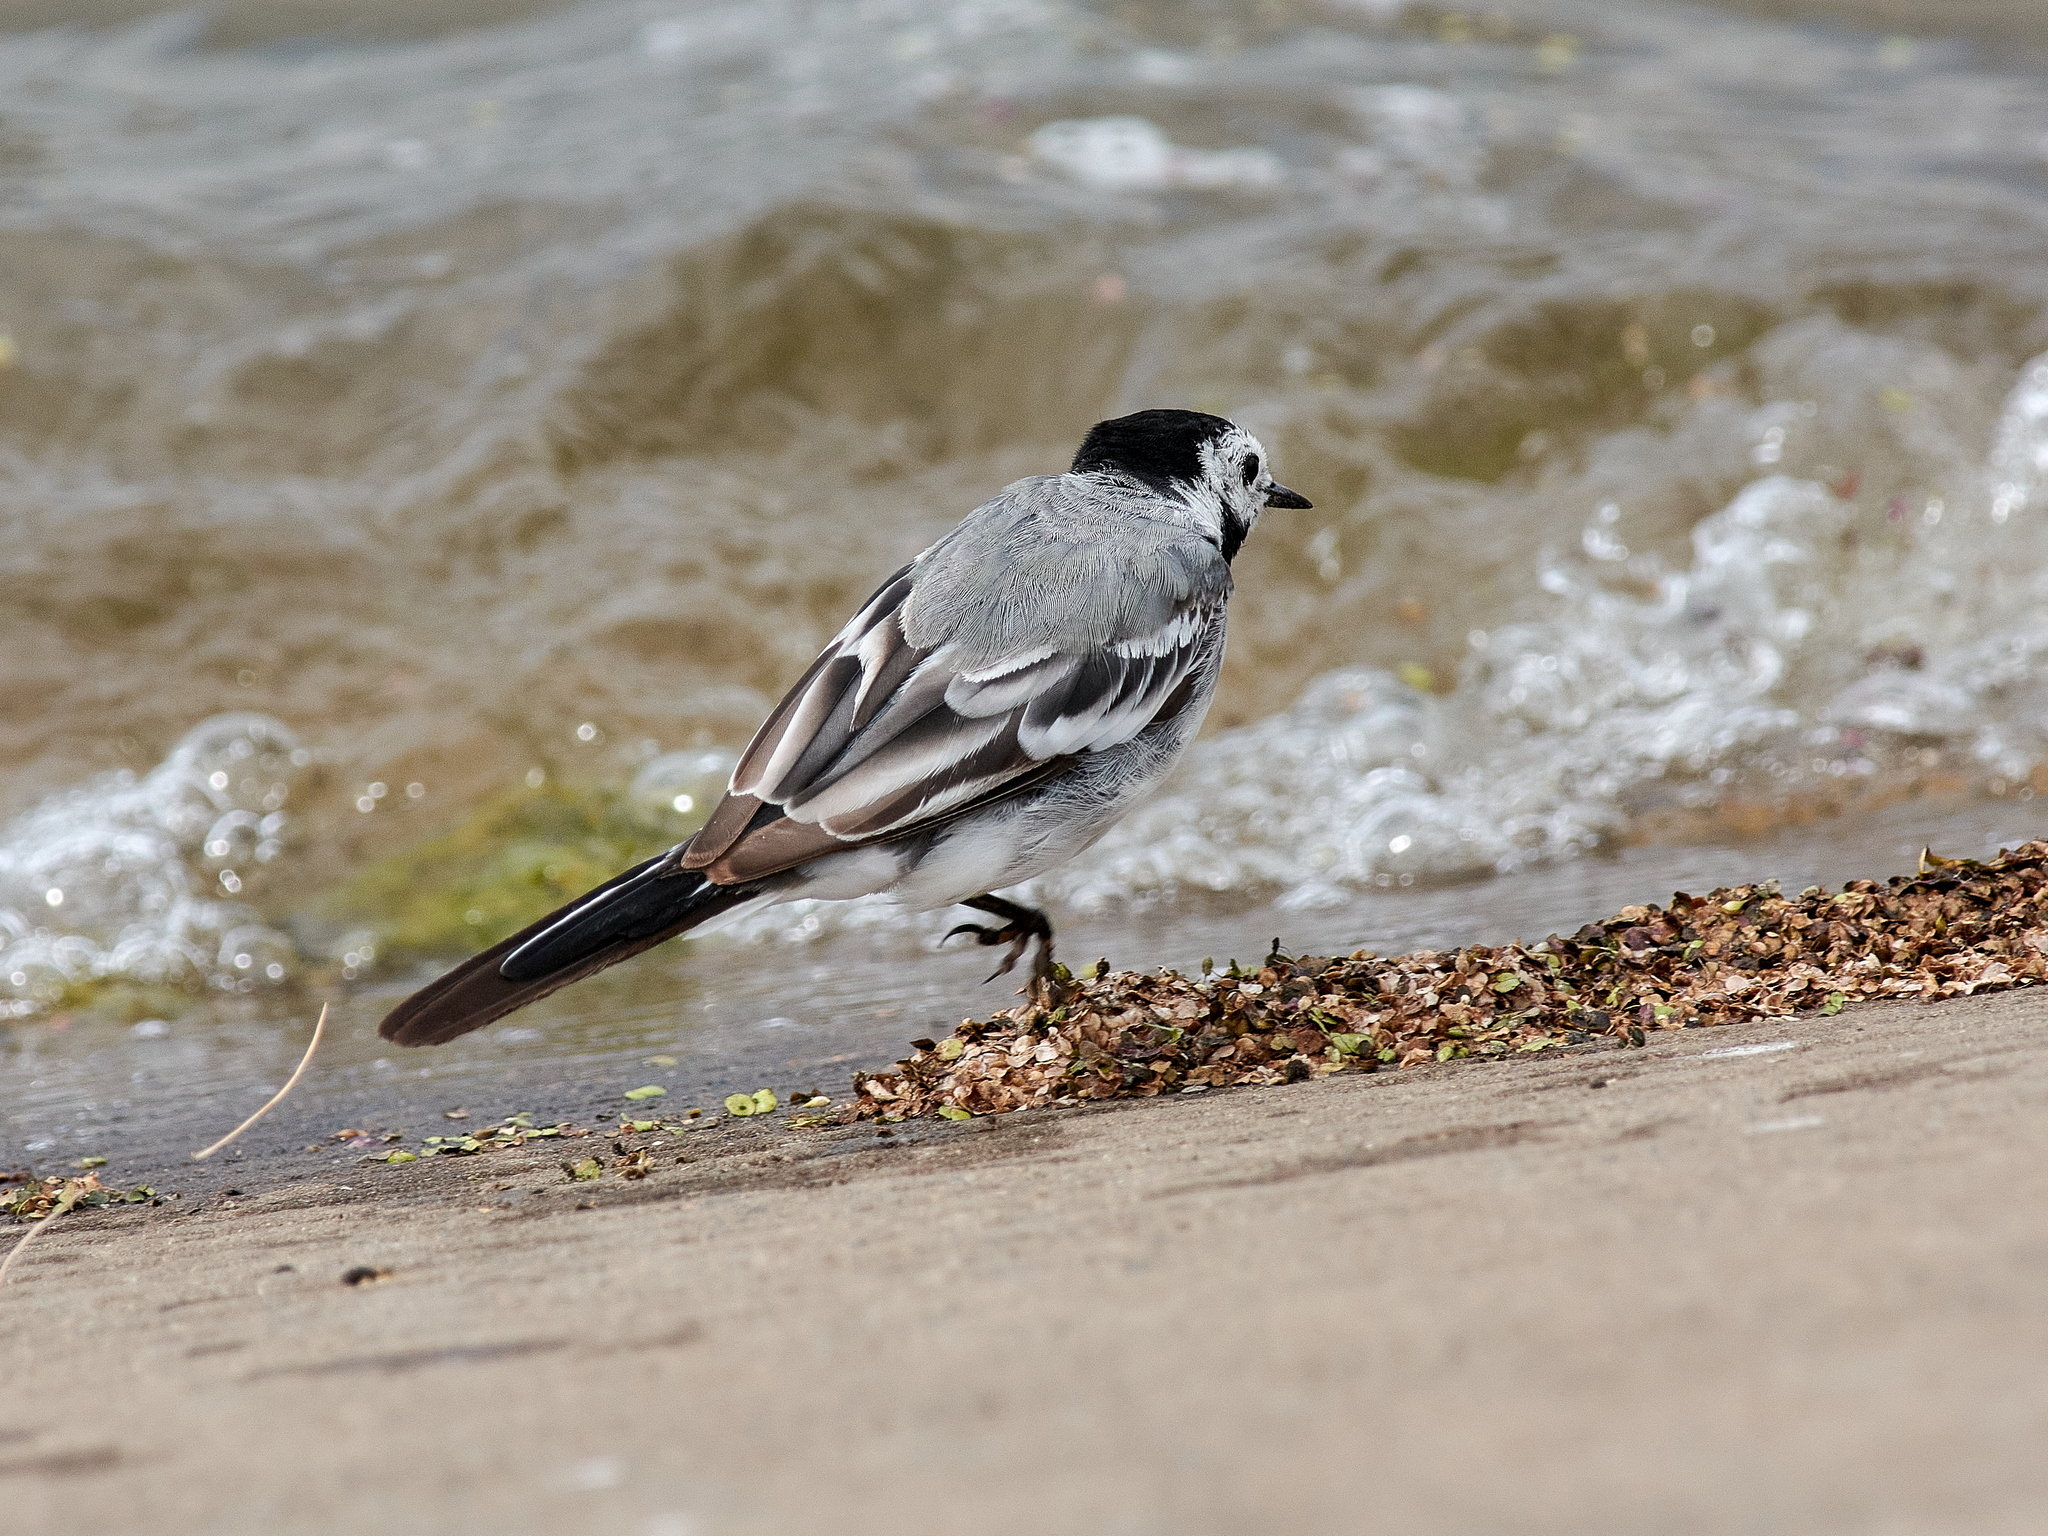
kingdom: Animalia
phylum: Chordata
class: Aves
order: Passeriformes
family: Motacillidae
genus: Motacilla
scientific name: Motacilla alba
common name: White wagtail
